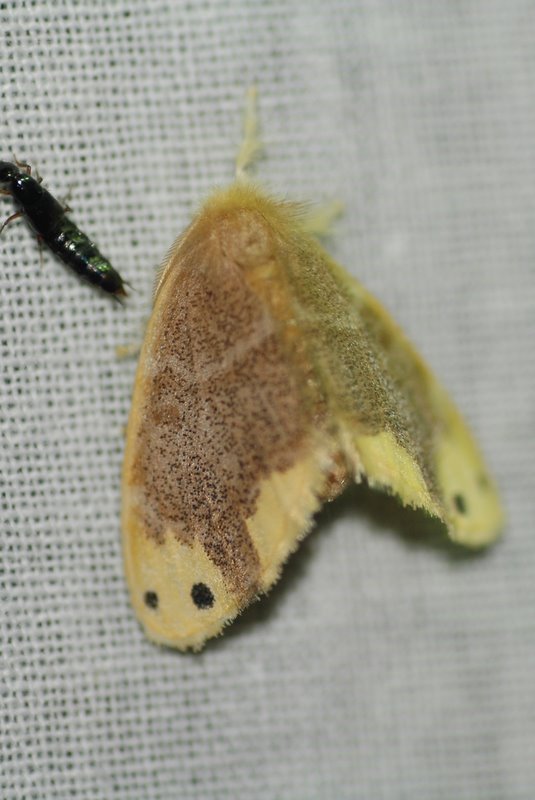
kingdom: Animalia
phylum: Arthropoda
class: Insecta
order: Lepidoptera
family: Erebidae
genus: Arna
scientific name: Arna bipunctapex
